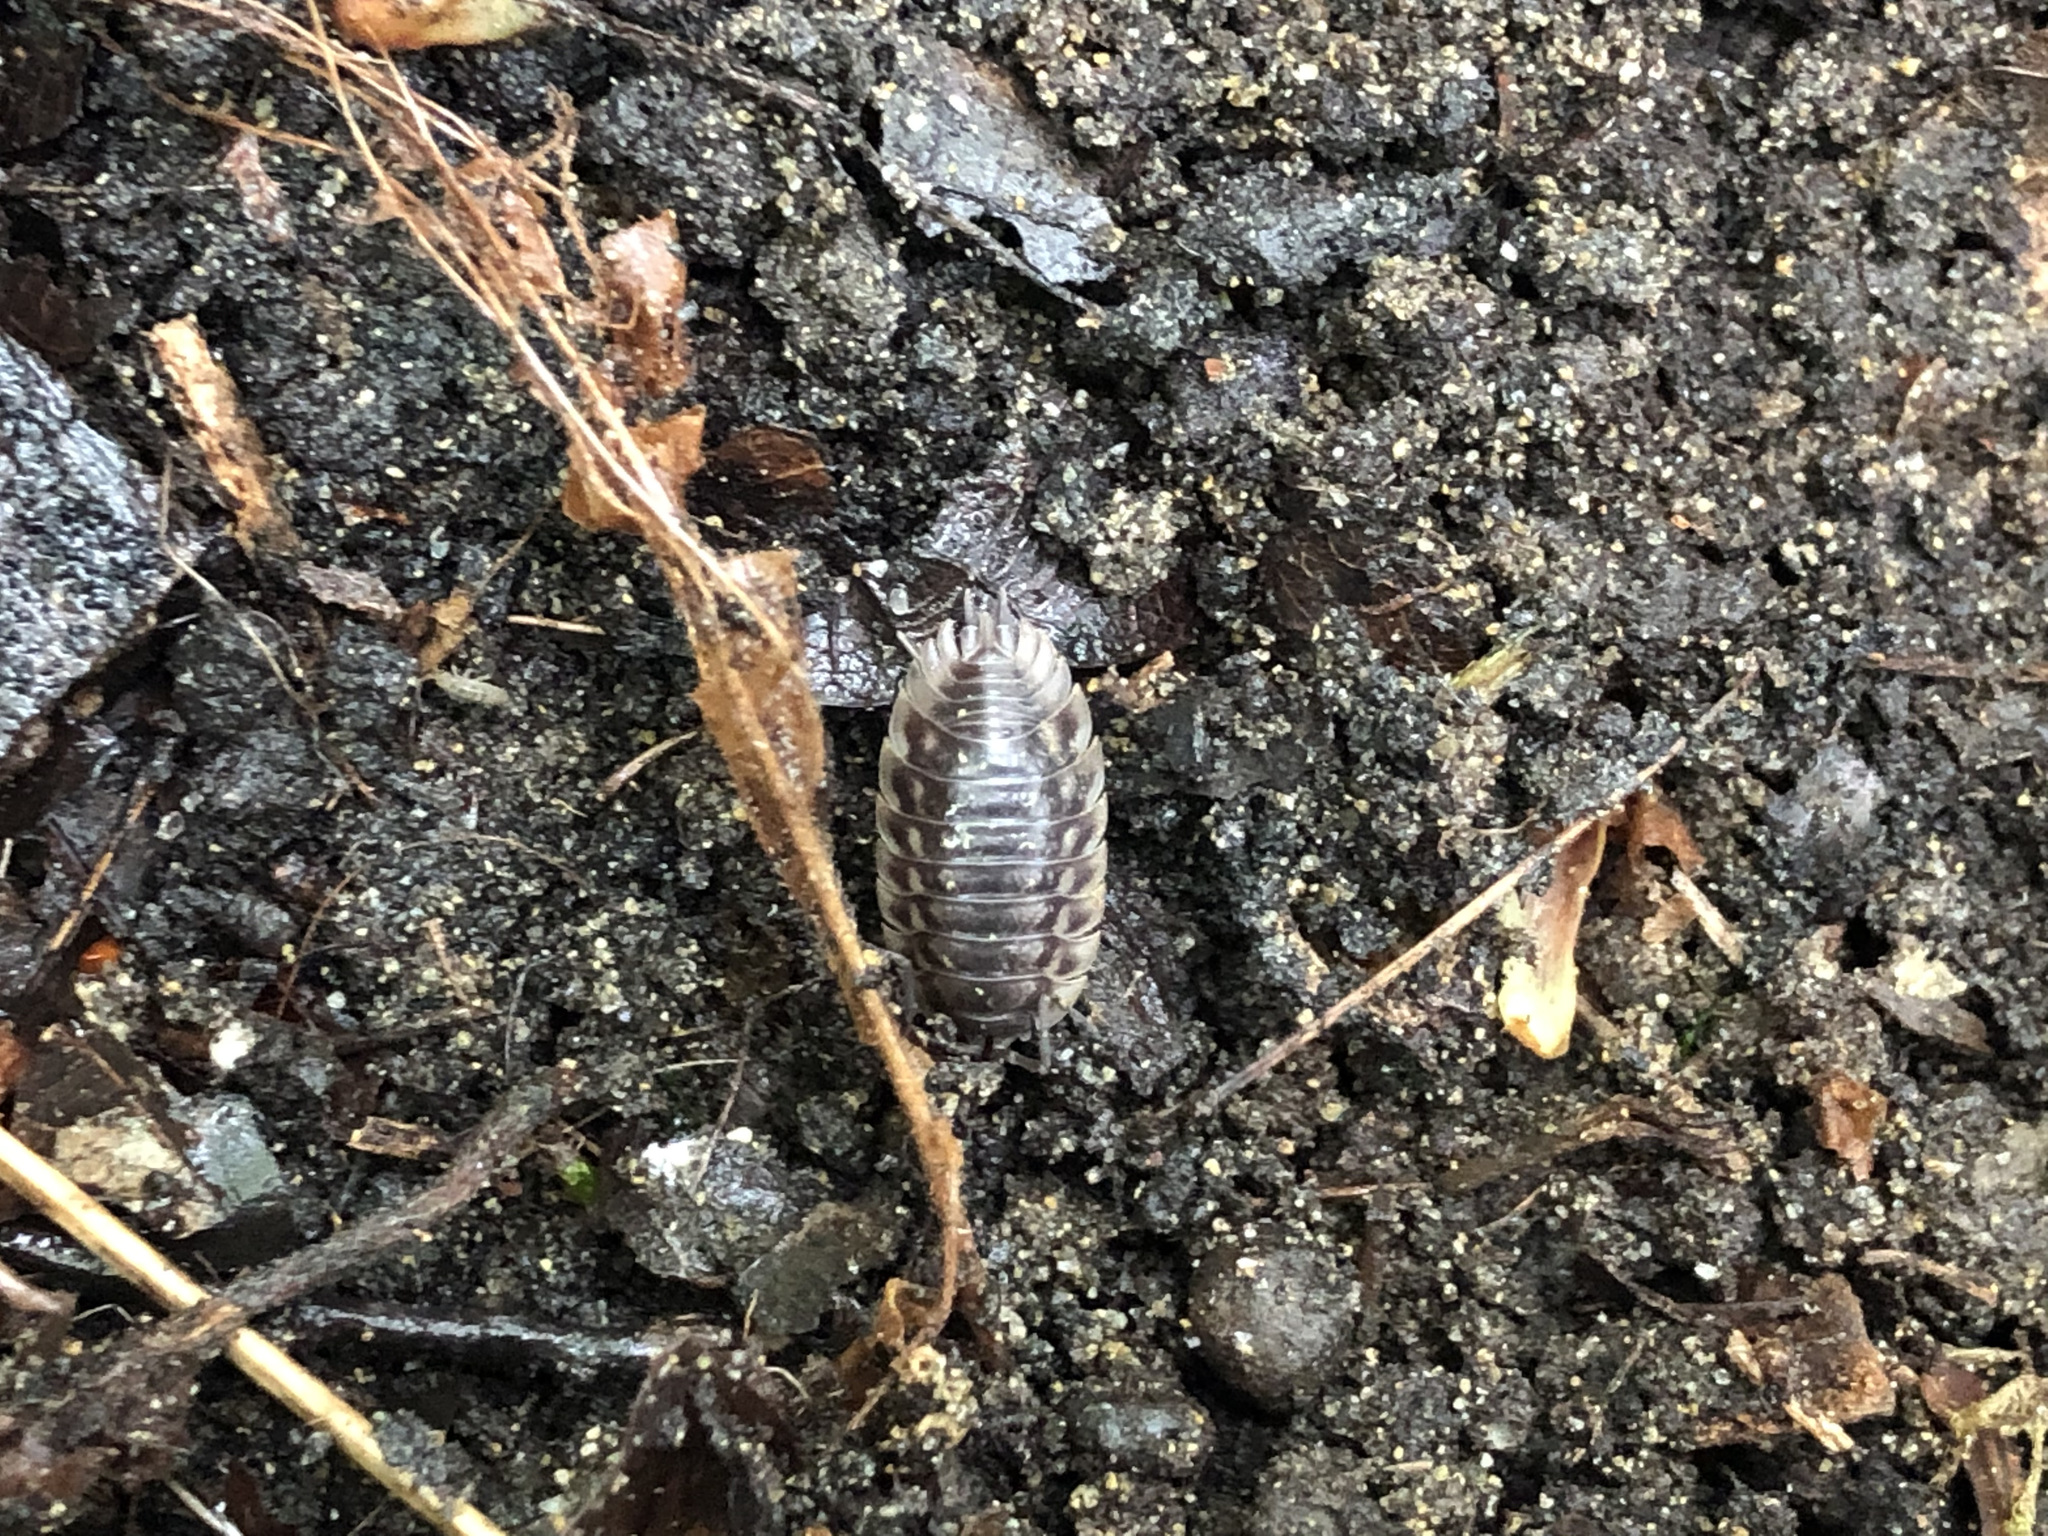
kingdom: Animalia
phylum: Arthropoda
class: Malacostraca
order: Isopoda
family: Oniscidae
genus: Oniscus
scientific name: Oniscus asellus
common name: Common shiny woodlouse
